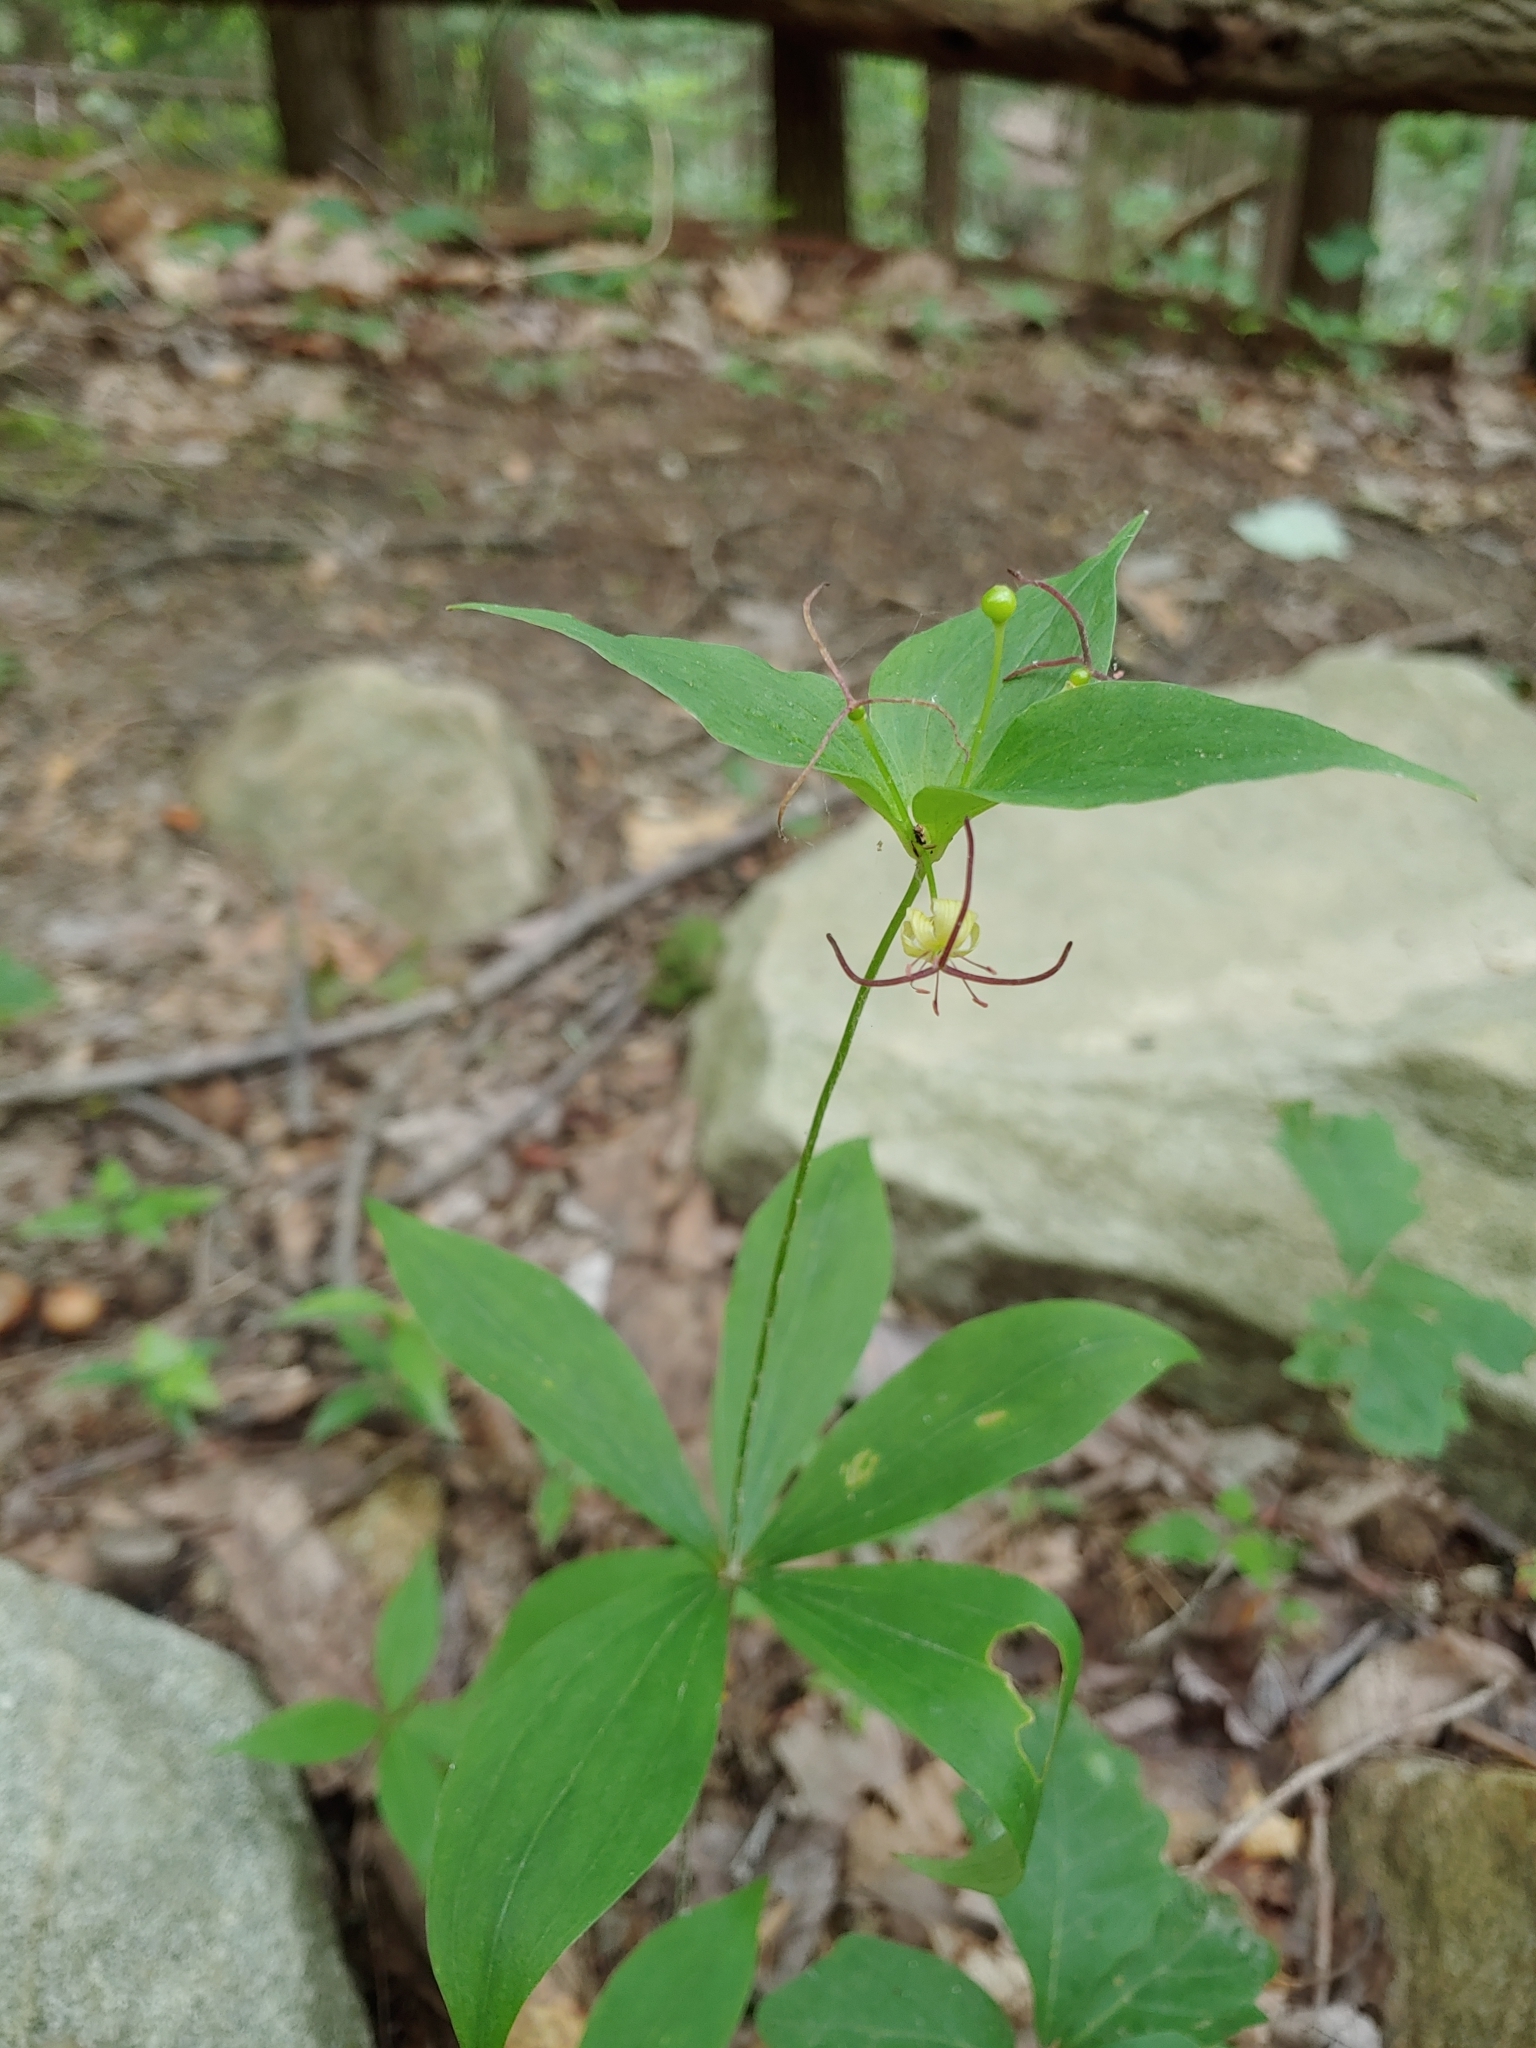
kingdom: Plantae
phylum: Tracheophyta
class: Liliopsida
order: Liliales
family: Liliaceae
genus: Medeola
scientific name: Medeola virginiana
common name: Indian cucumber-root
